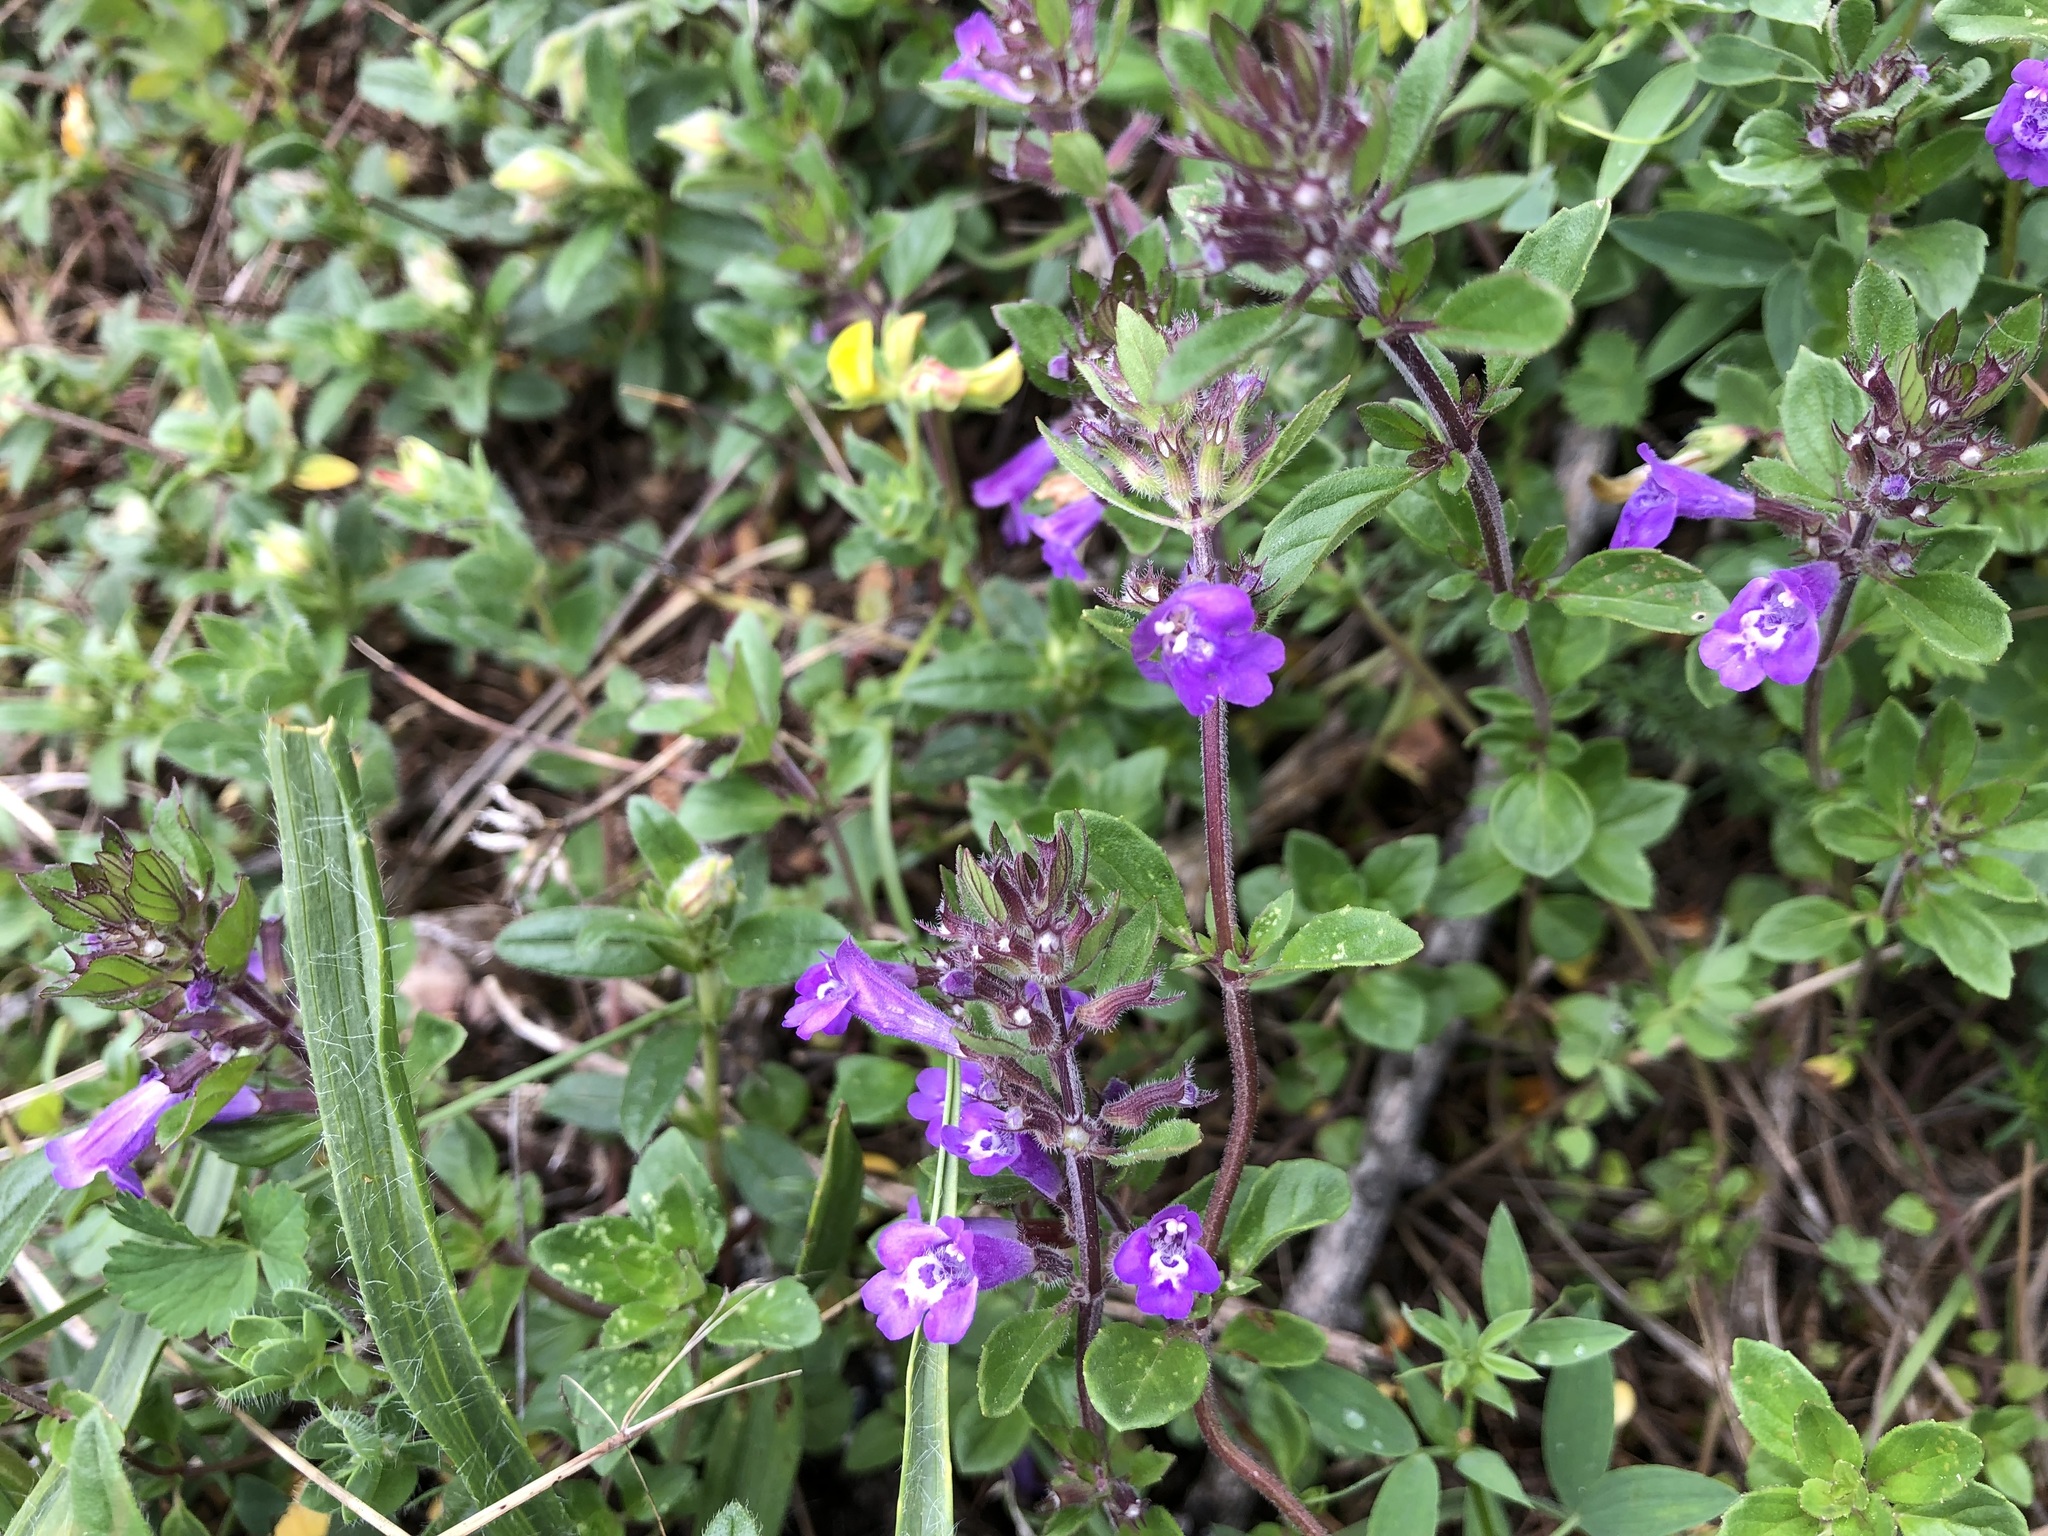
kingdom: Plantae
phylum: Tracheophyta
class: Magnoliopsida
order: Lamiales
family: Lamiaceae
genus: Clinopodium
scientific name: Clinopodium alpinum
